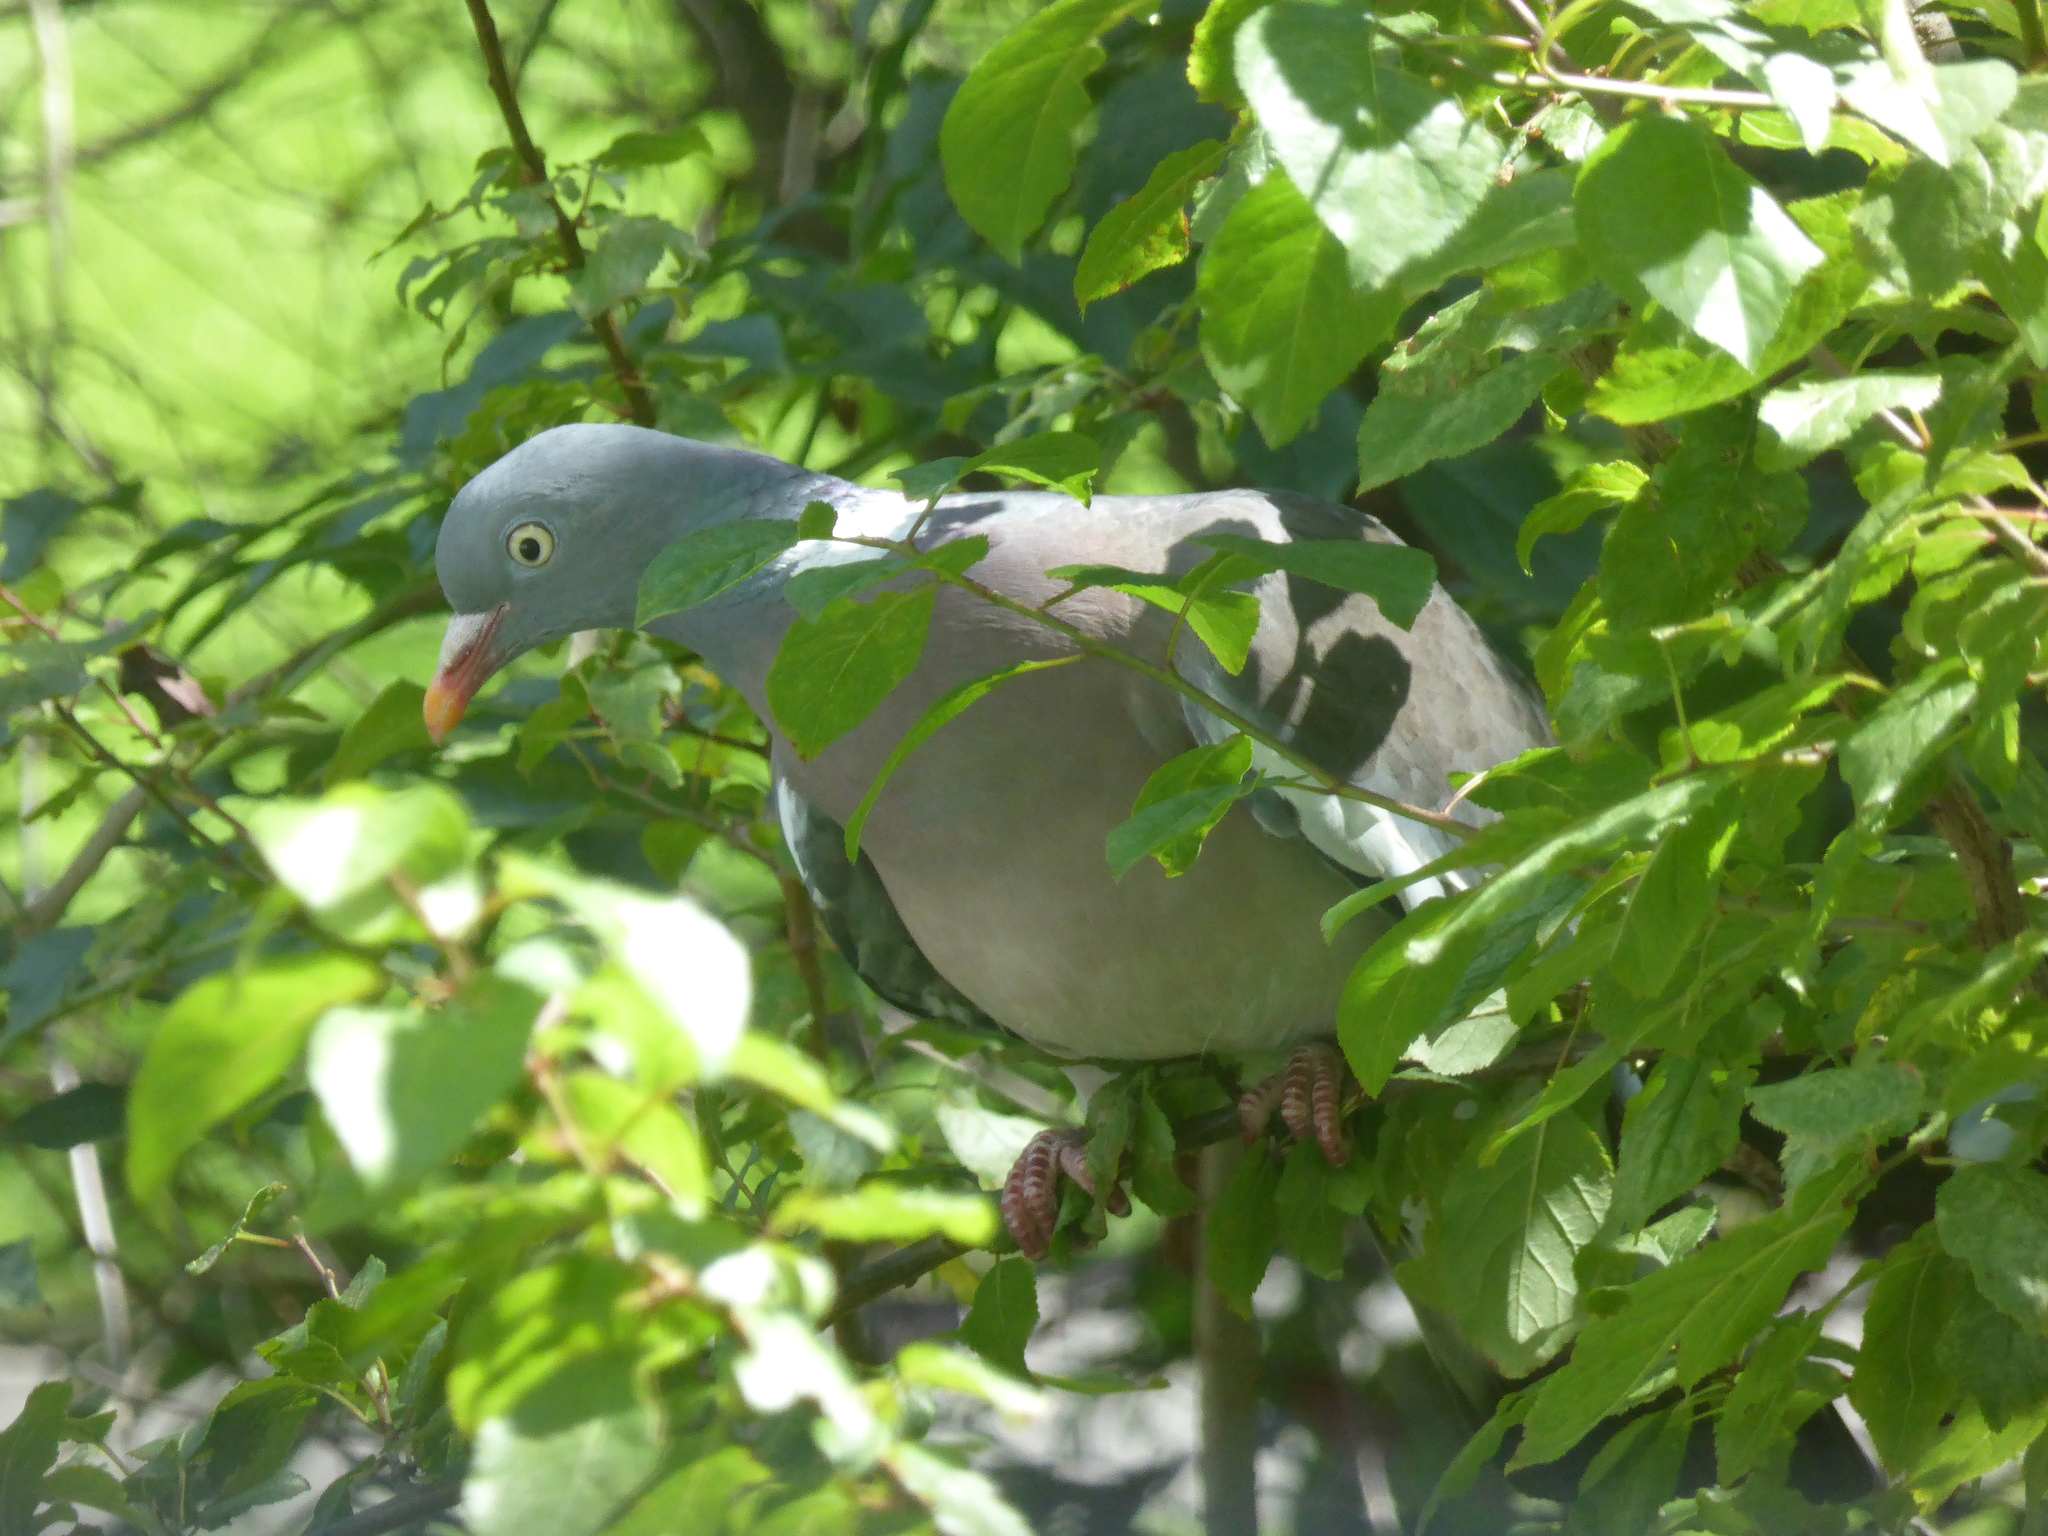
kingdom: Animalia
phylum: Chordata
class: Aves
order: Columbiformes
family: Columbidae
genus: Columba
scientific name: Columba palumbus
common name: Common wood pigeon
